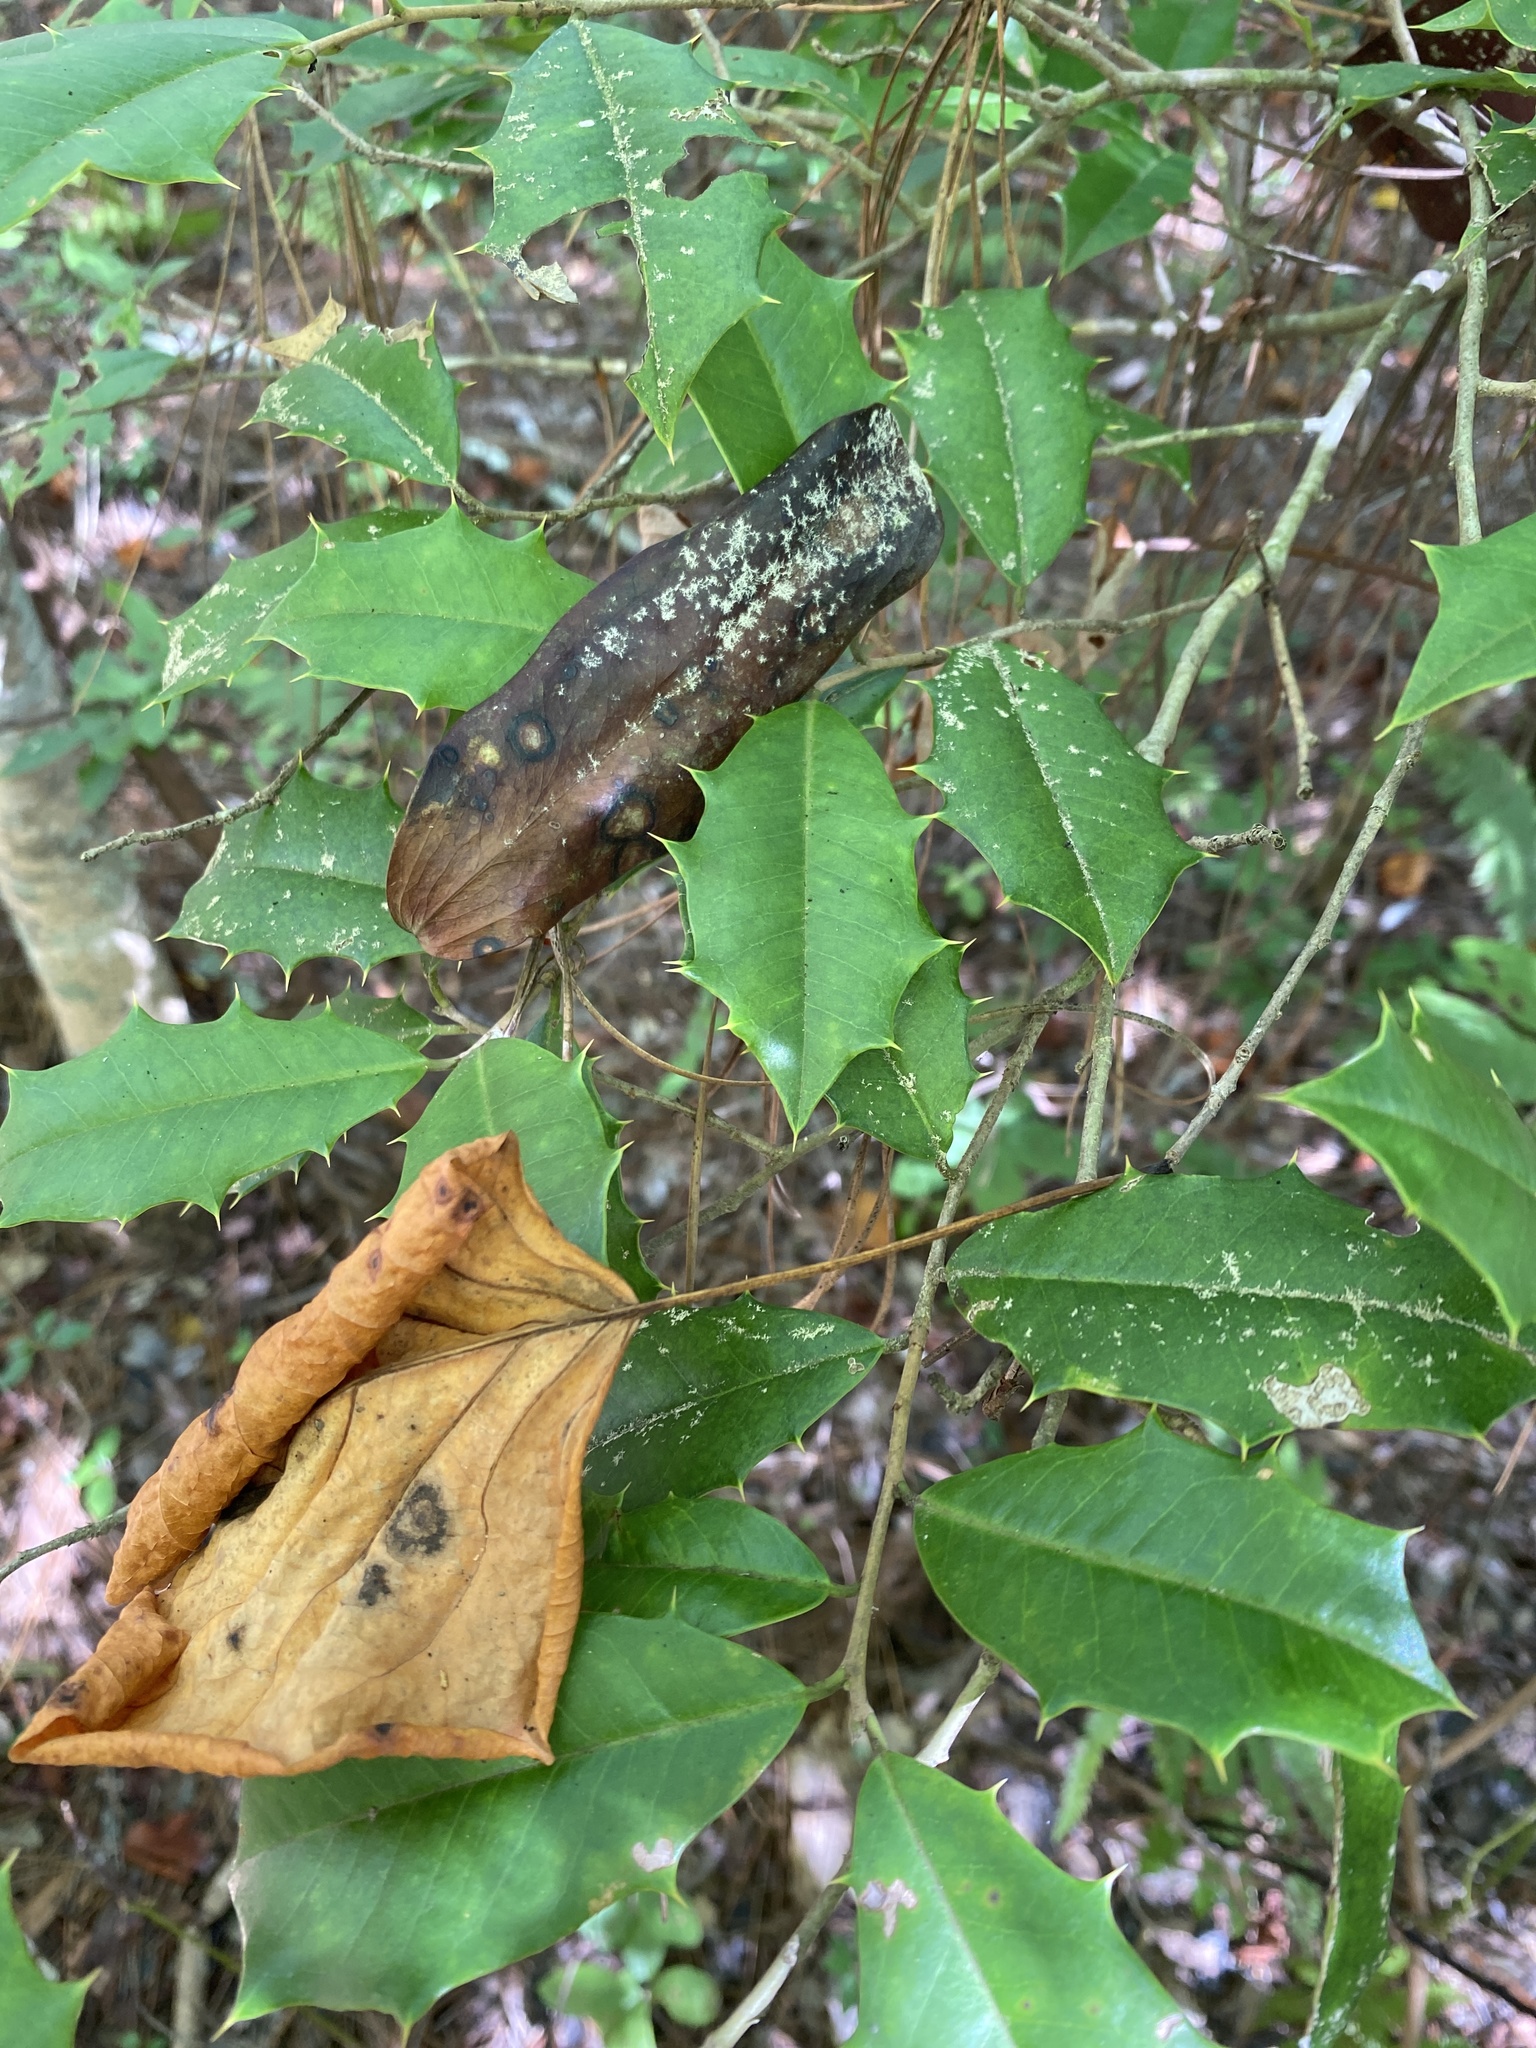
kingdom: Plantae
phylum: Tracheophyta
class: Magnoliopsida
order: Aquifoliales
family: Aquifoliaceae
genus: Ilex
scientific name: Ilex opaca
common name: American holly
